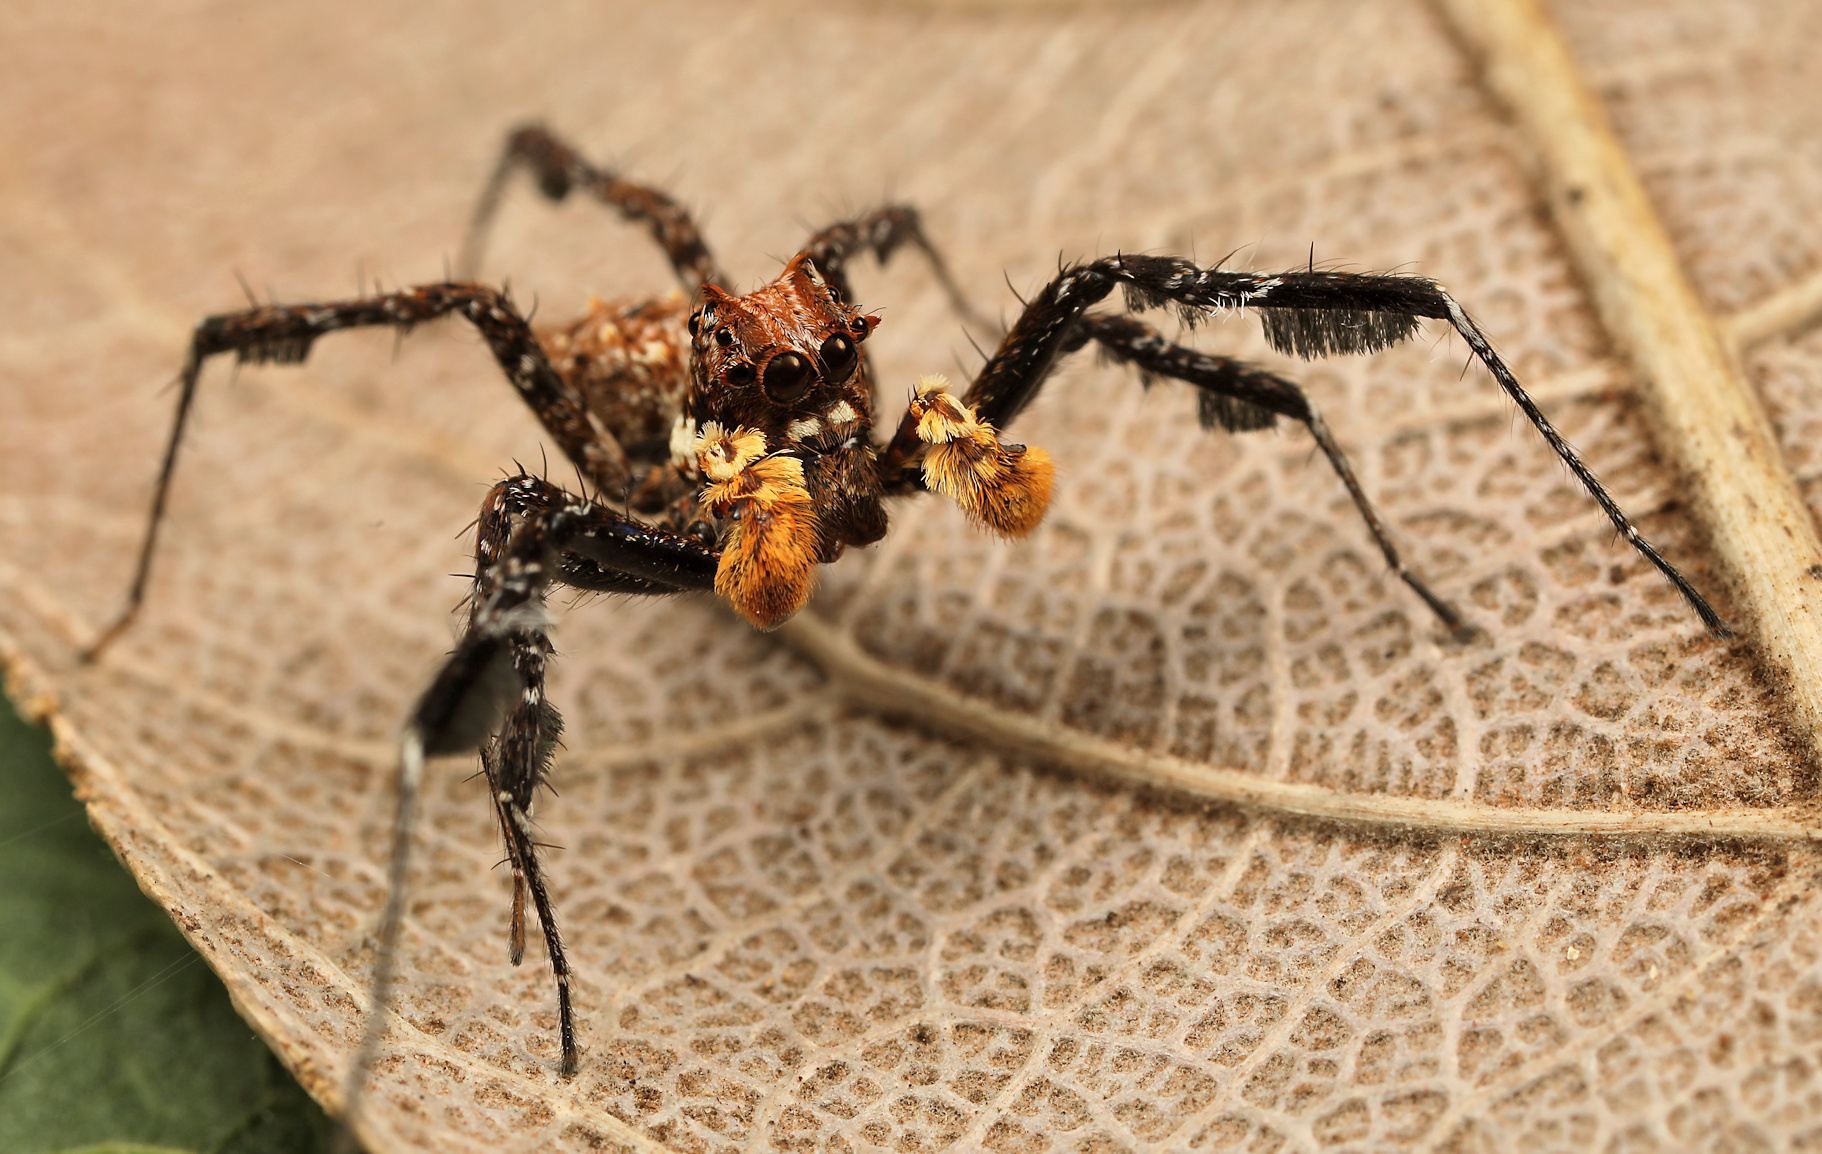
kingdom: Animalia
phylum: Arthropoda
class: Arachnida
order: Araneae
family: Salticidae
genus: Portia
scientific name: Portia schultzi
